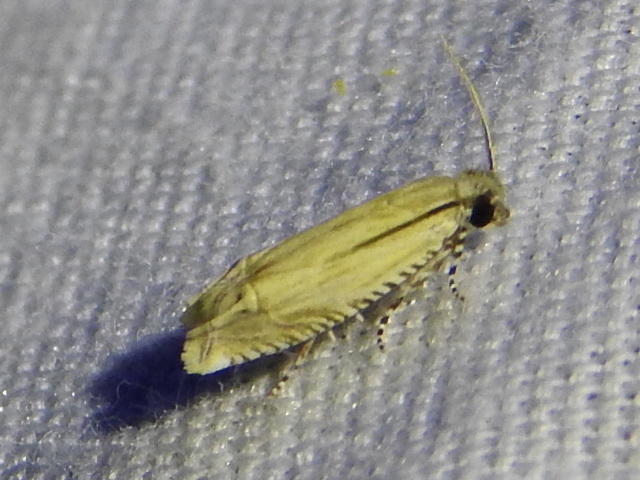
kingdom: Animalia
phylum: Arthropoda
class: Insecta
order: Lepidoptera
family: Tortricidae
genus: Eucosma
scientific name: Eucosma grindeliana
